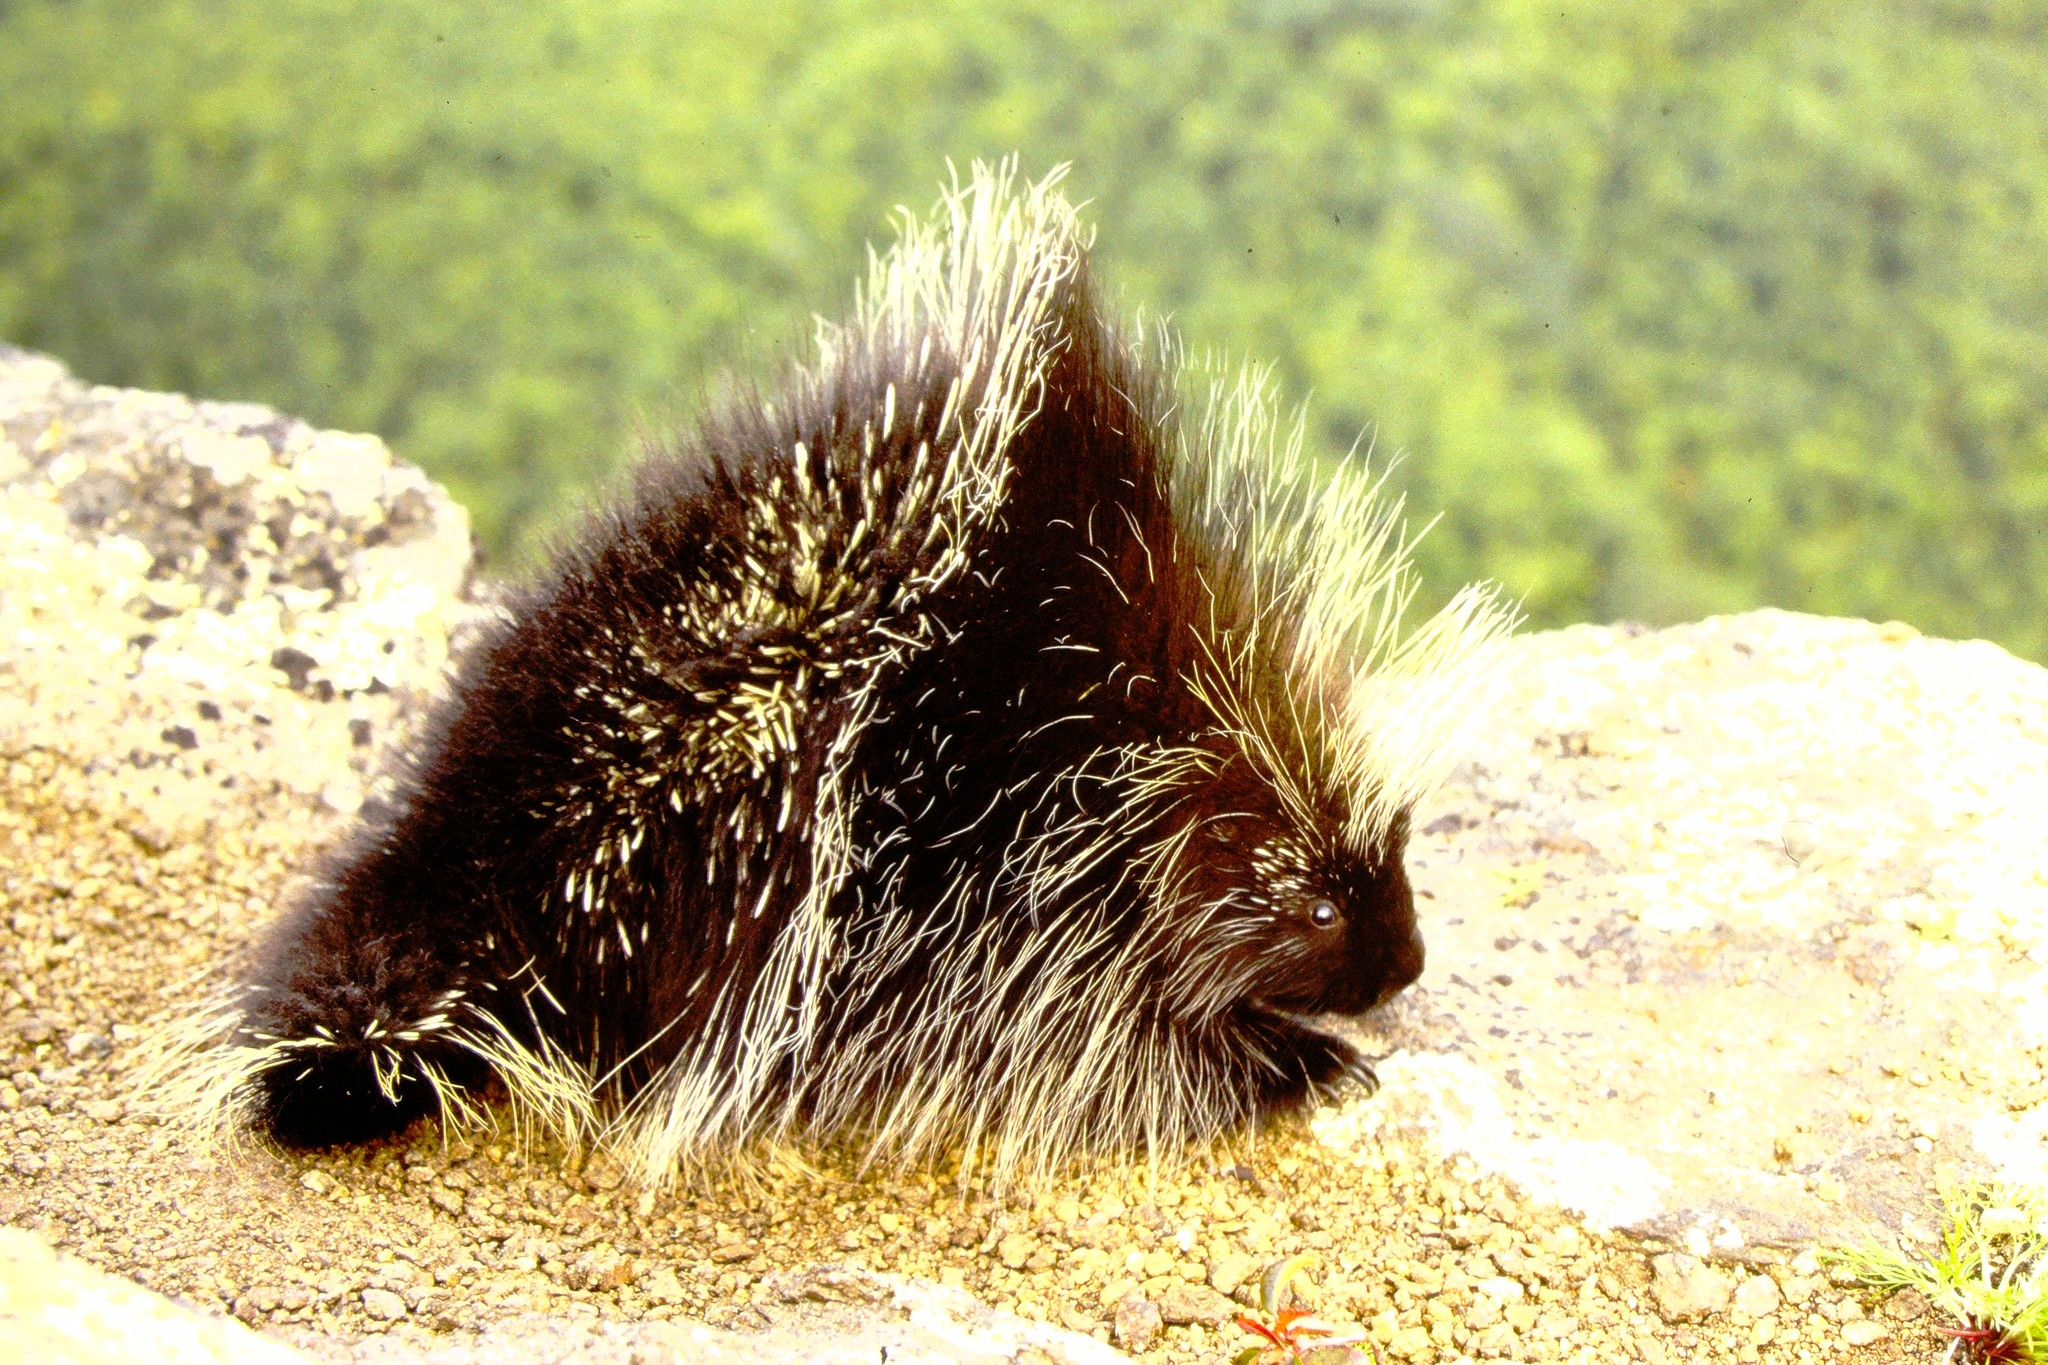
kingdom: Animalia
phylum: Chordata
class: Mammalia
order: Rodentia
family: Erethizontidae
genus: Erethizon
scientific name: Erethizon dorsatus
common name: North american porcupine
